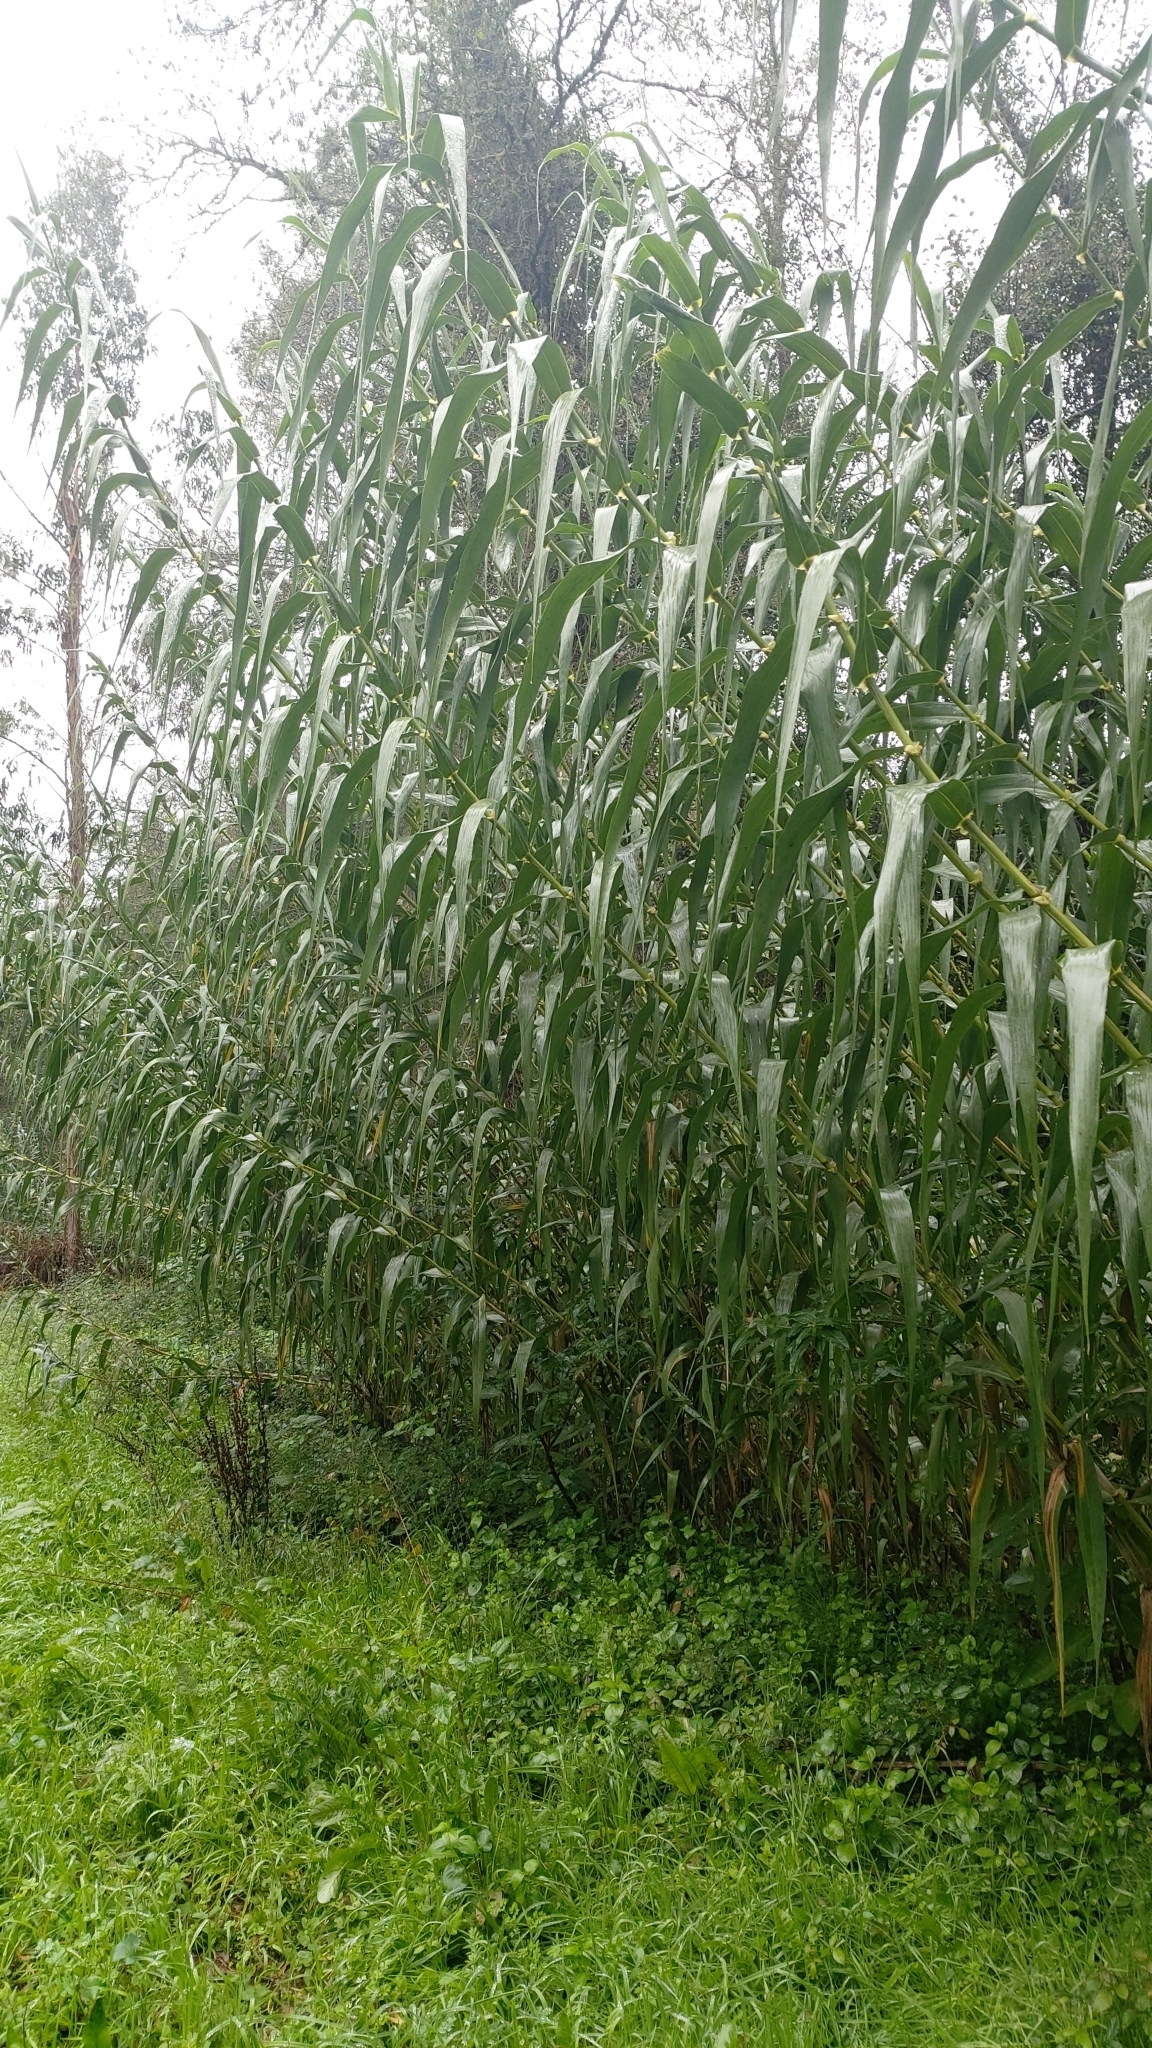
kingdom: Plantae
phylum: Tracheophyta
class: Liliopsida
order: Poales
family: Poaceae
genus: Arundo
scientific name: Arundo donax
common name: Giant reed
